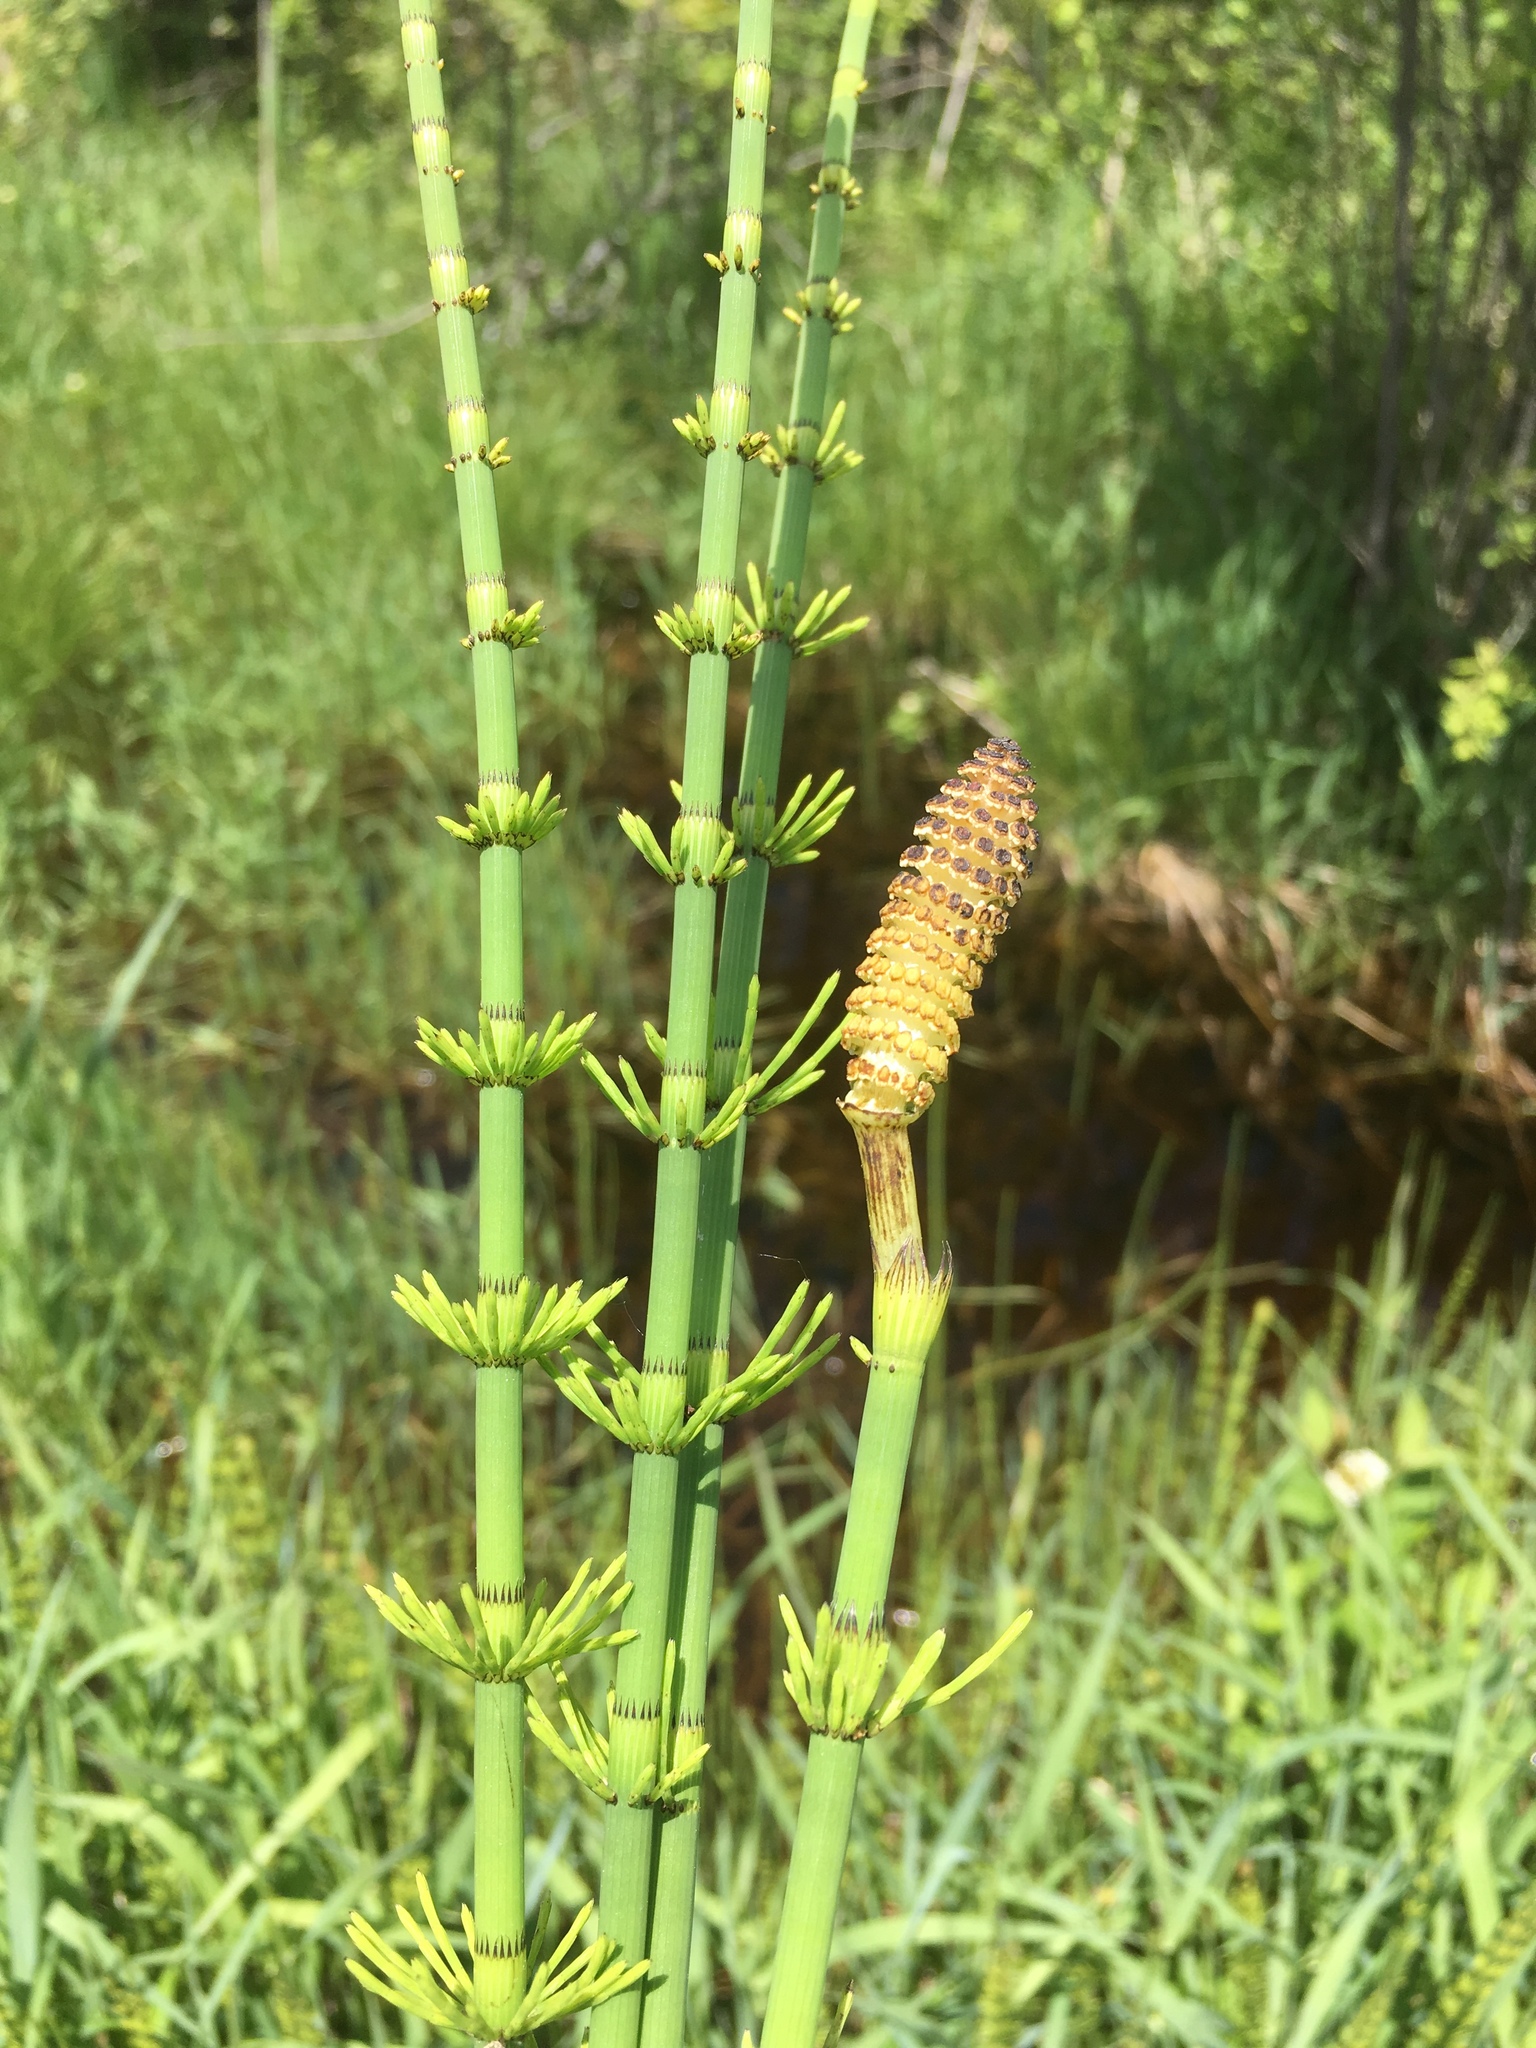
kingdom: Plantae
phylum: Tracheophyta
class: Polypodiopsida
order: Equisetales
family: Equisetaceae
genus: Equisetum
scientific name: Equisetum fluviatile
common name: Water horsetail
